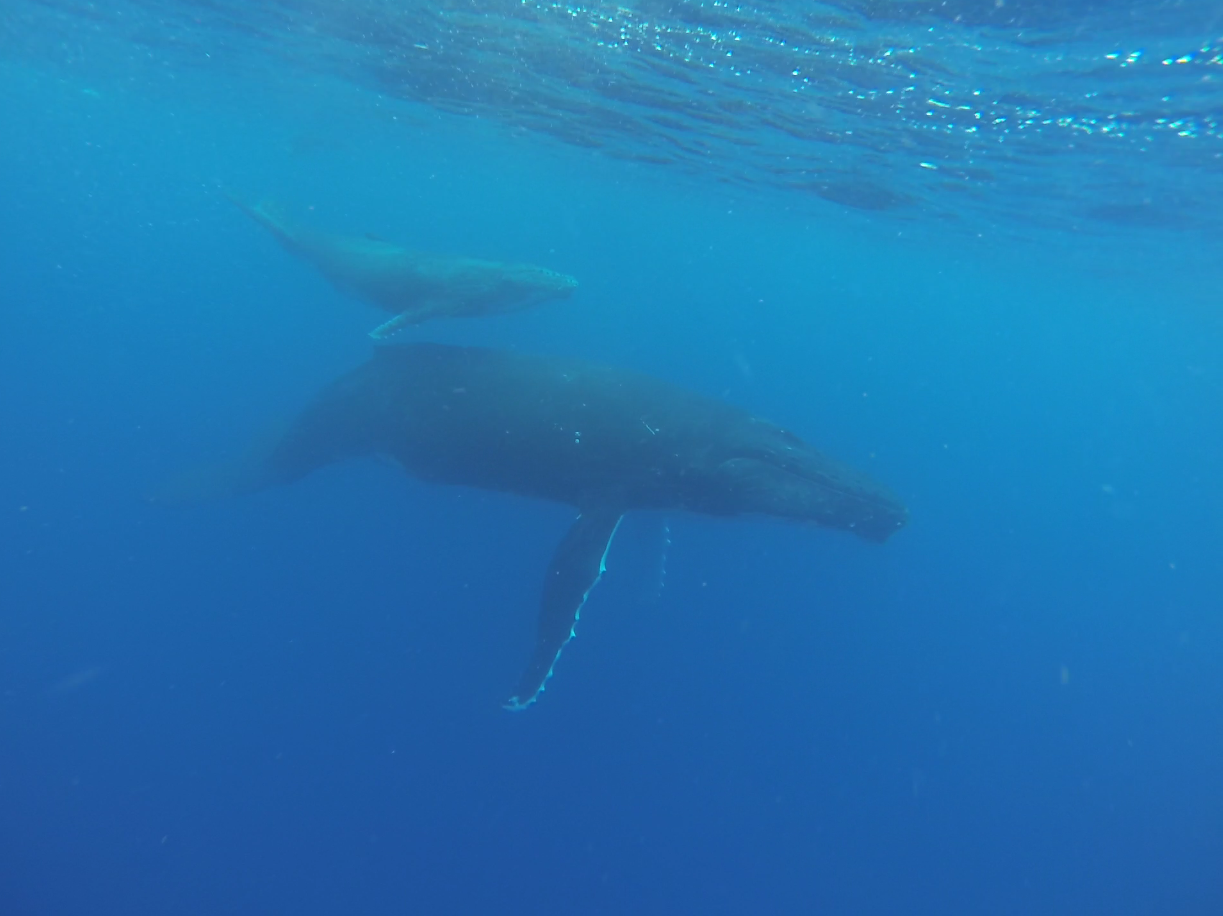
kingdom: Animalia
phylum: Chordata
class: Mammalia
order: Cetacea
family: Balaenopteridae
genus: Megaptera
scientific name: Megaptera novaeangliae
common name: Humpback whale
